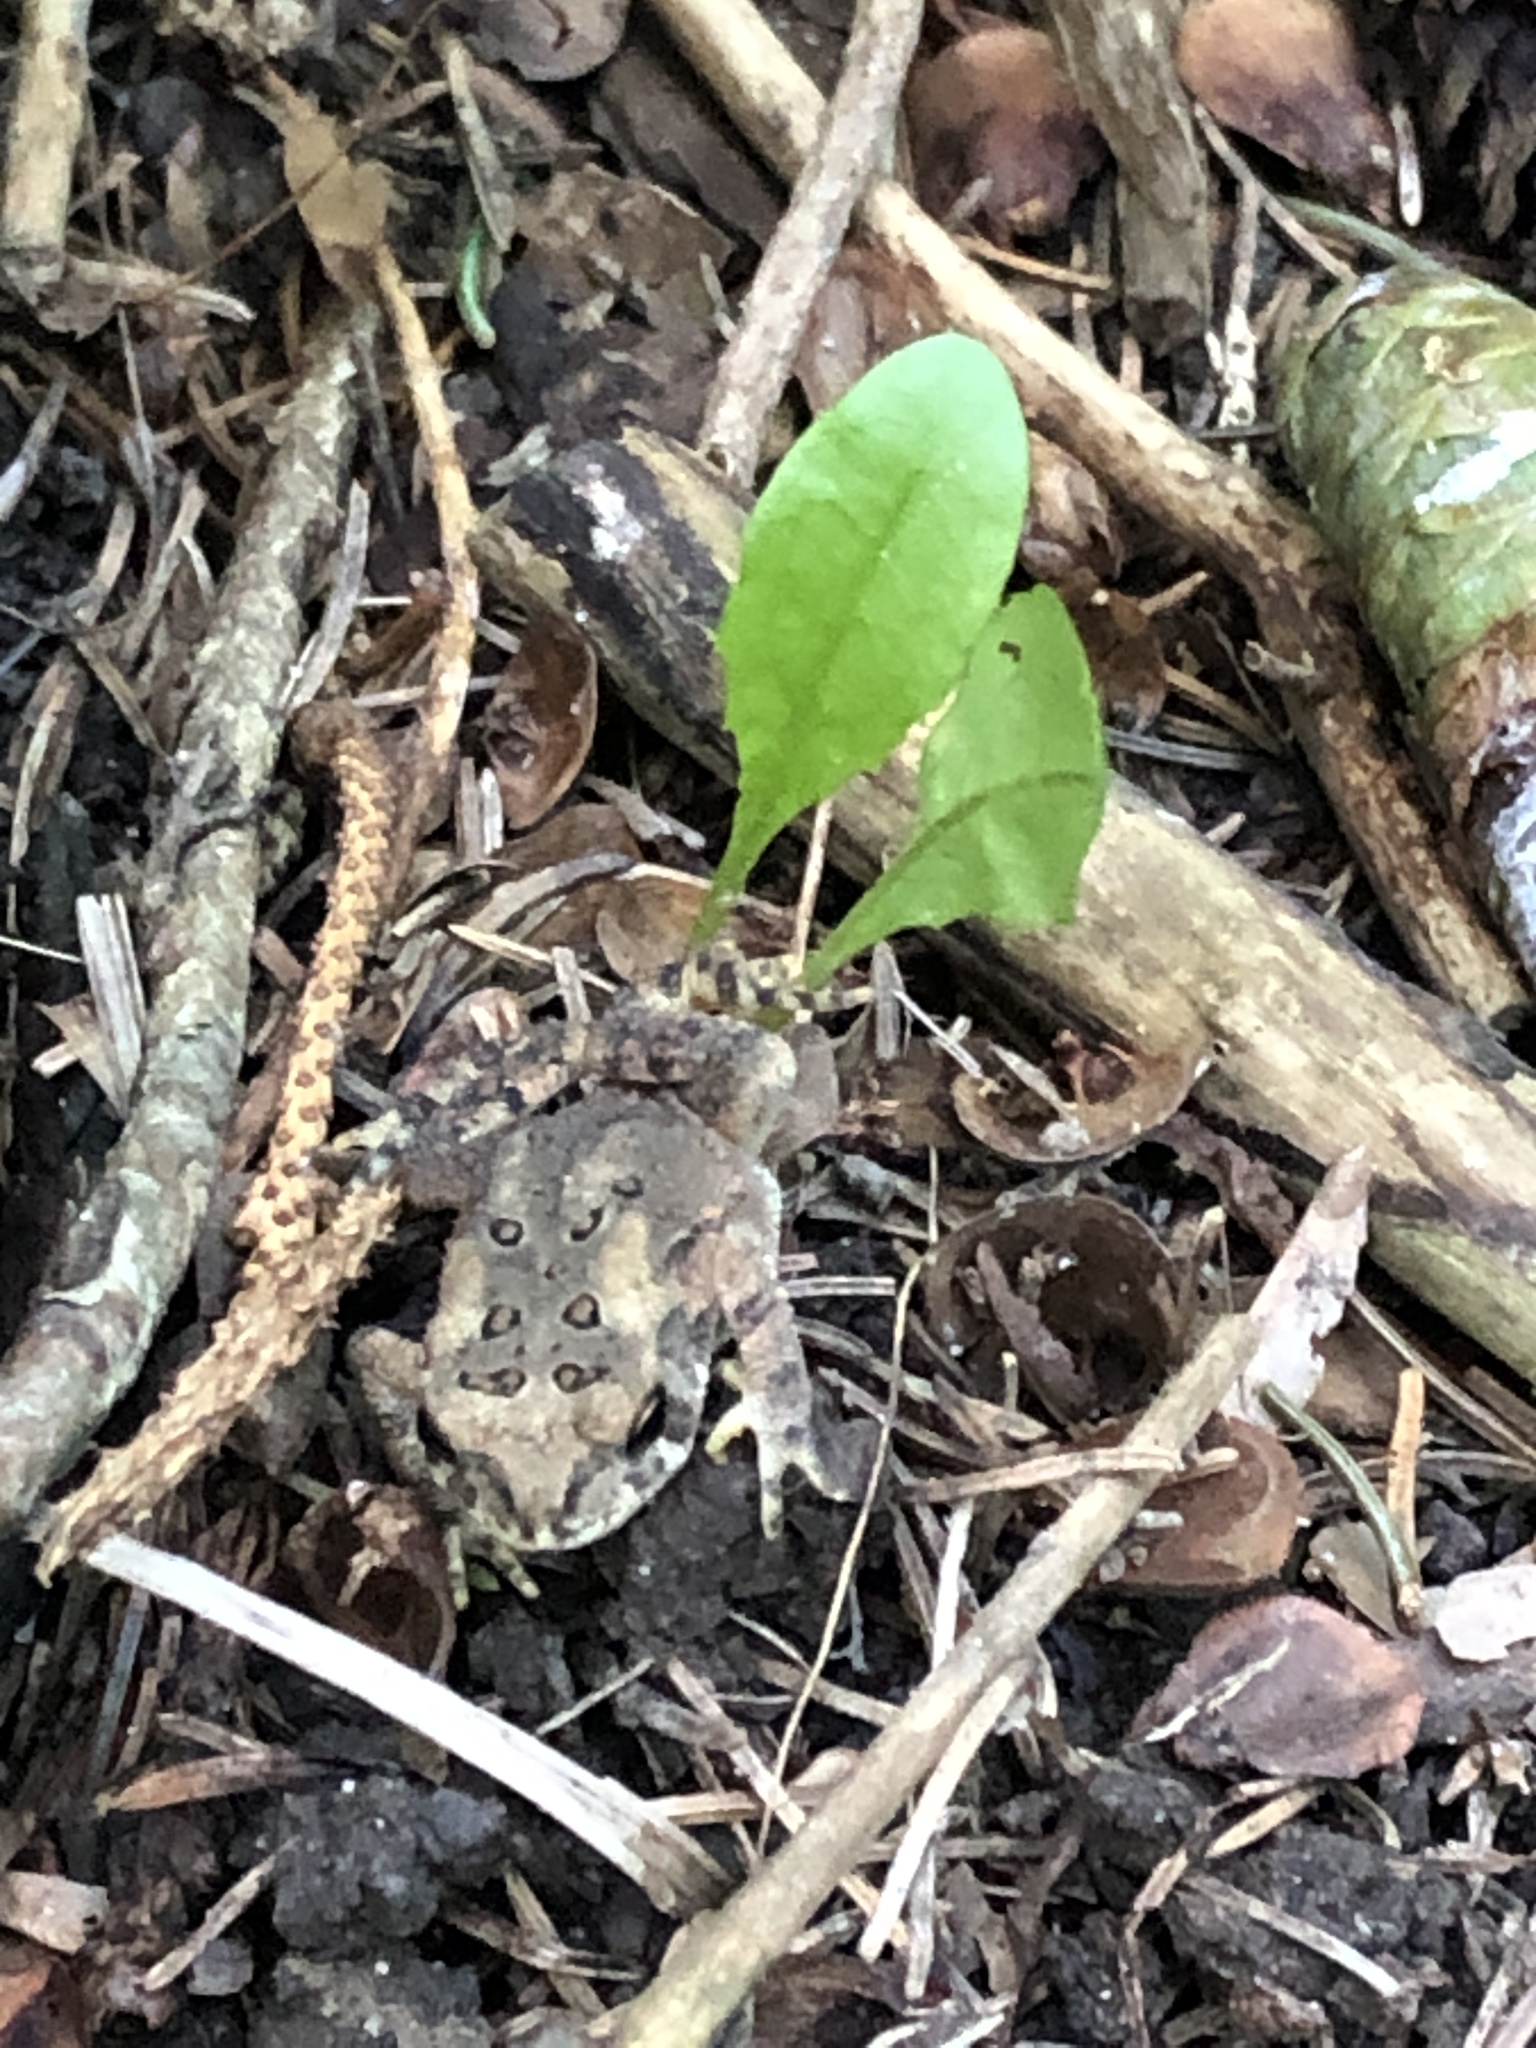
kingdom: Animalia
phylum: Chordata
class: Amphibia
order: Anura
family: Bufonidae
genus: Anaxyrus
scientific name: Anaxyrus americanus
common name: American toad
